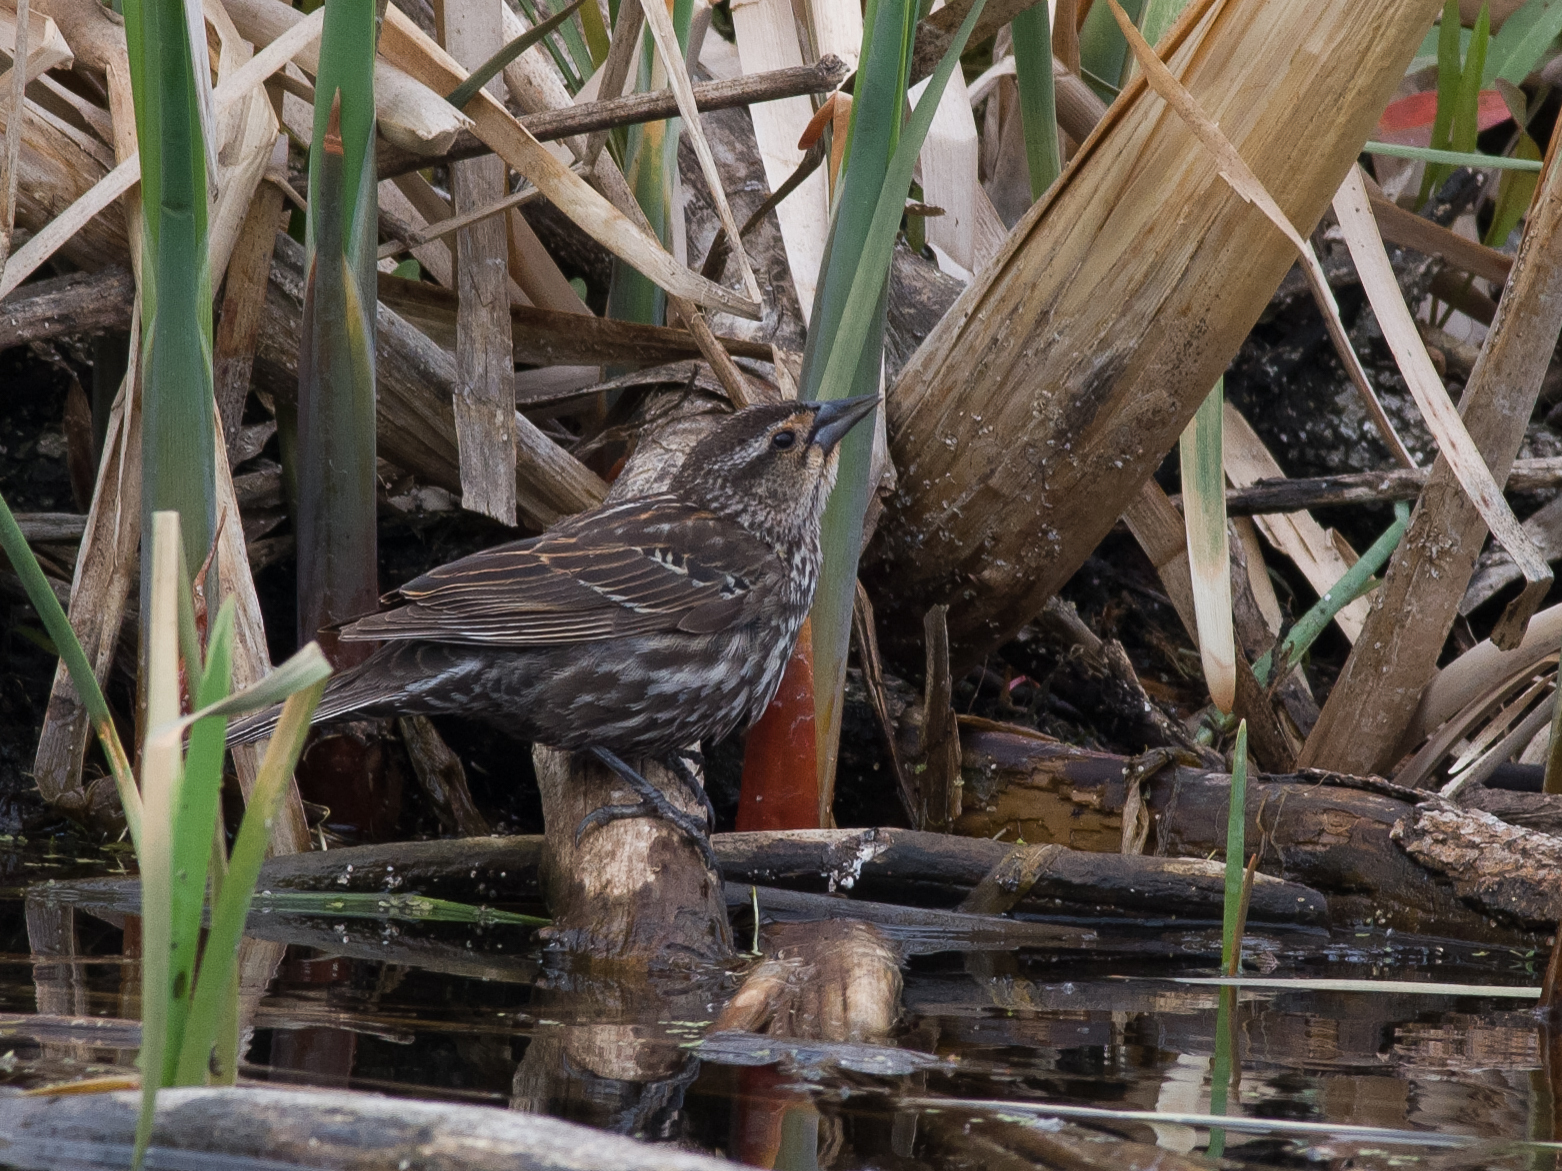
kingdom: Animalia
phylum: Chordata
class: Aves
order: Passeriformes
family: Icteridae
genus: Agelaius
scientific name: Agelaius phoeniceus
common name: Red-winged blackbird
